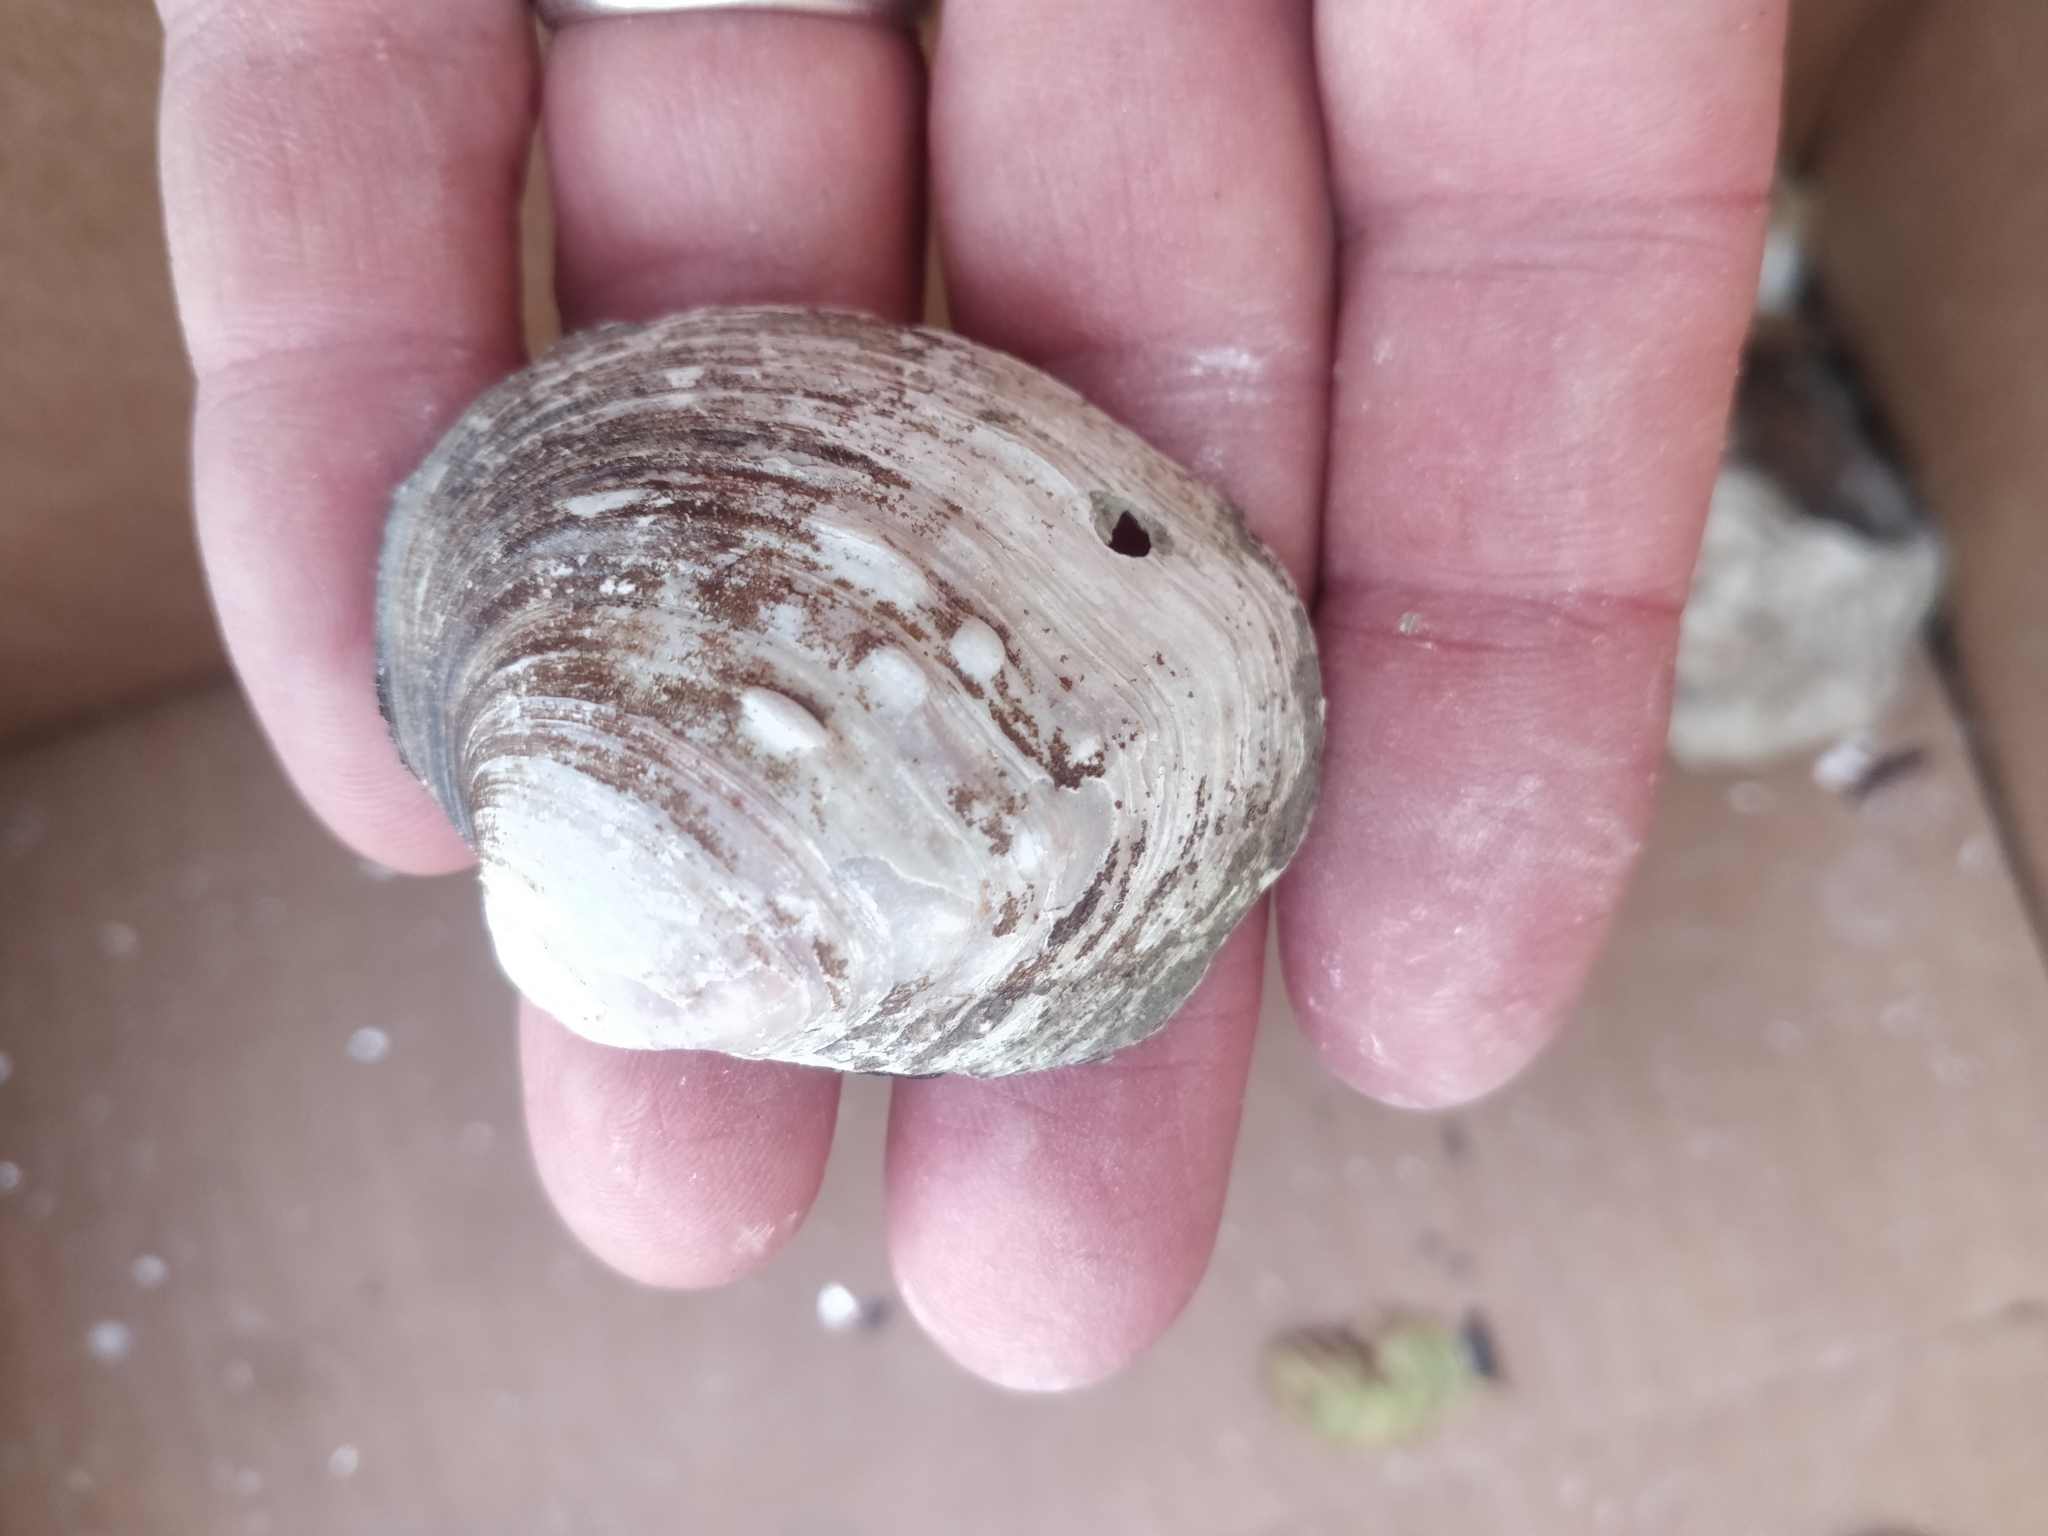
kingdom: Animalia
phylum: Mollusca
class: Bivalvia
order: Unionida
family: Unionidae
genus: Cyclonaias
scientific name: Cyclonaias pustulosa
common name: Pimpleback
